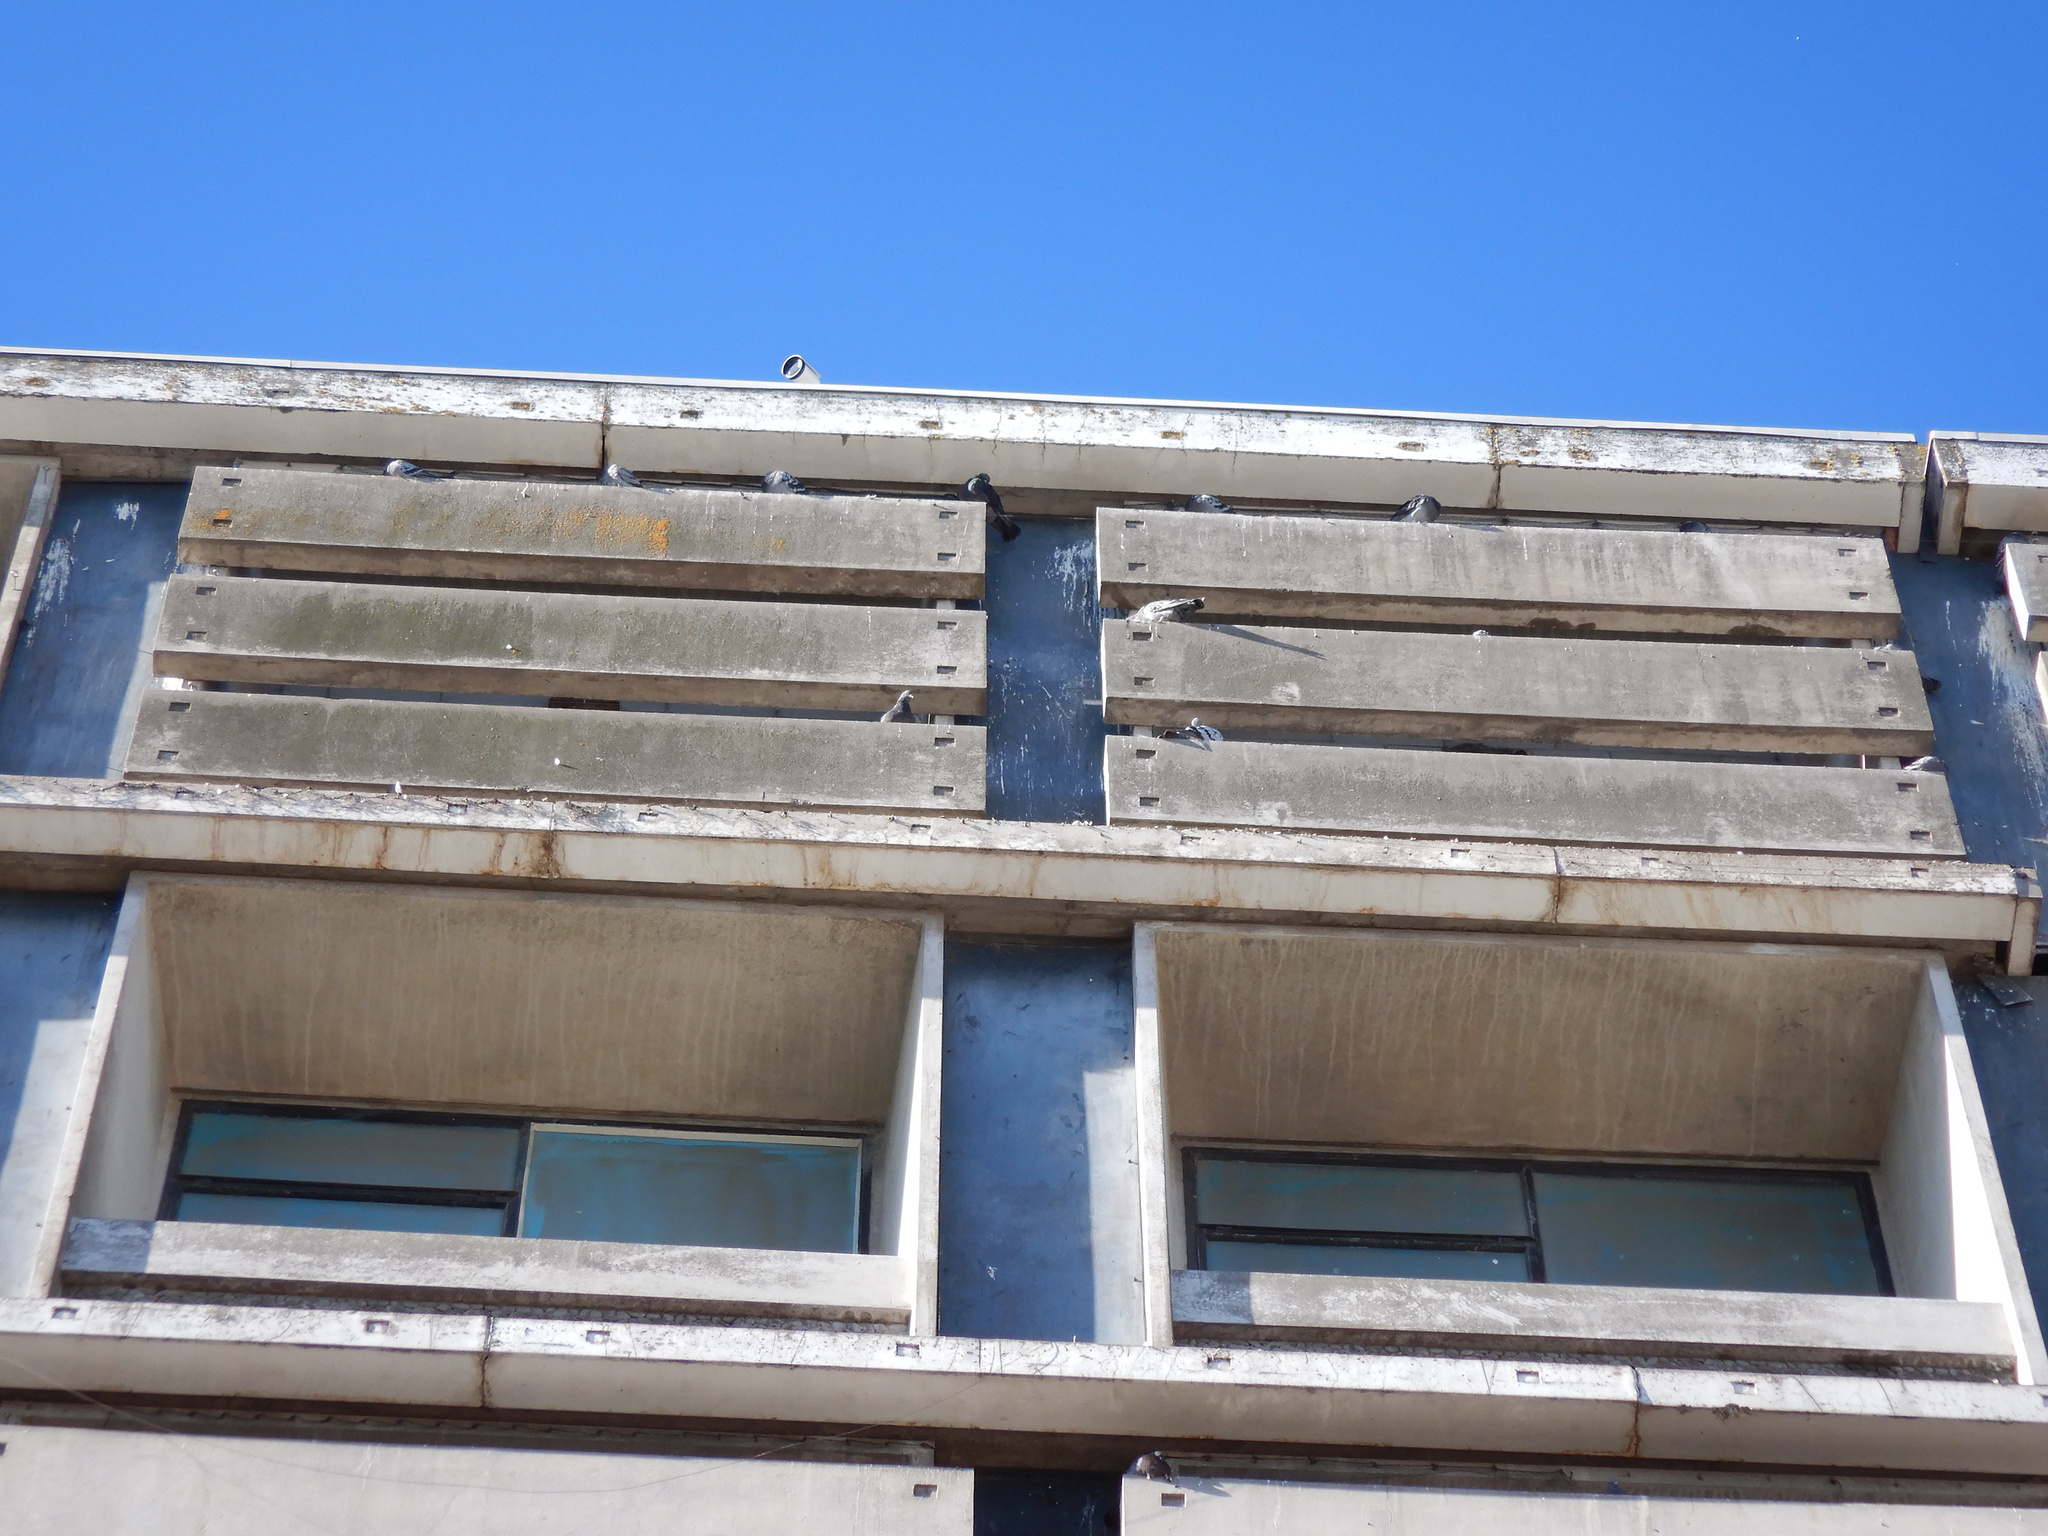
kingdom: Animalia
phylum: Chordata
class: Aves
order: Columbiformes
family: Columbidae
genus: Columba
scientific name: Columba livia
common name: Rock pigeon
